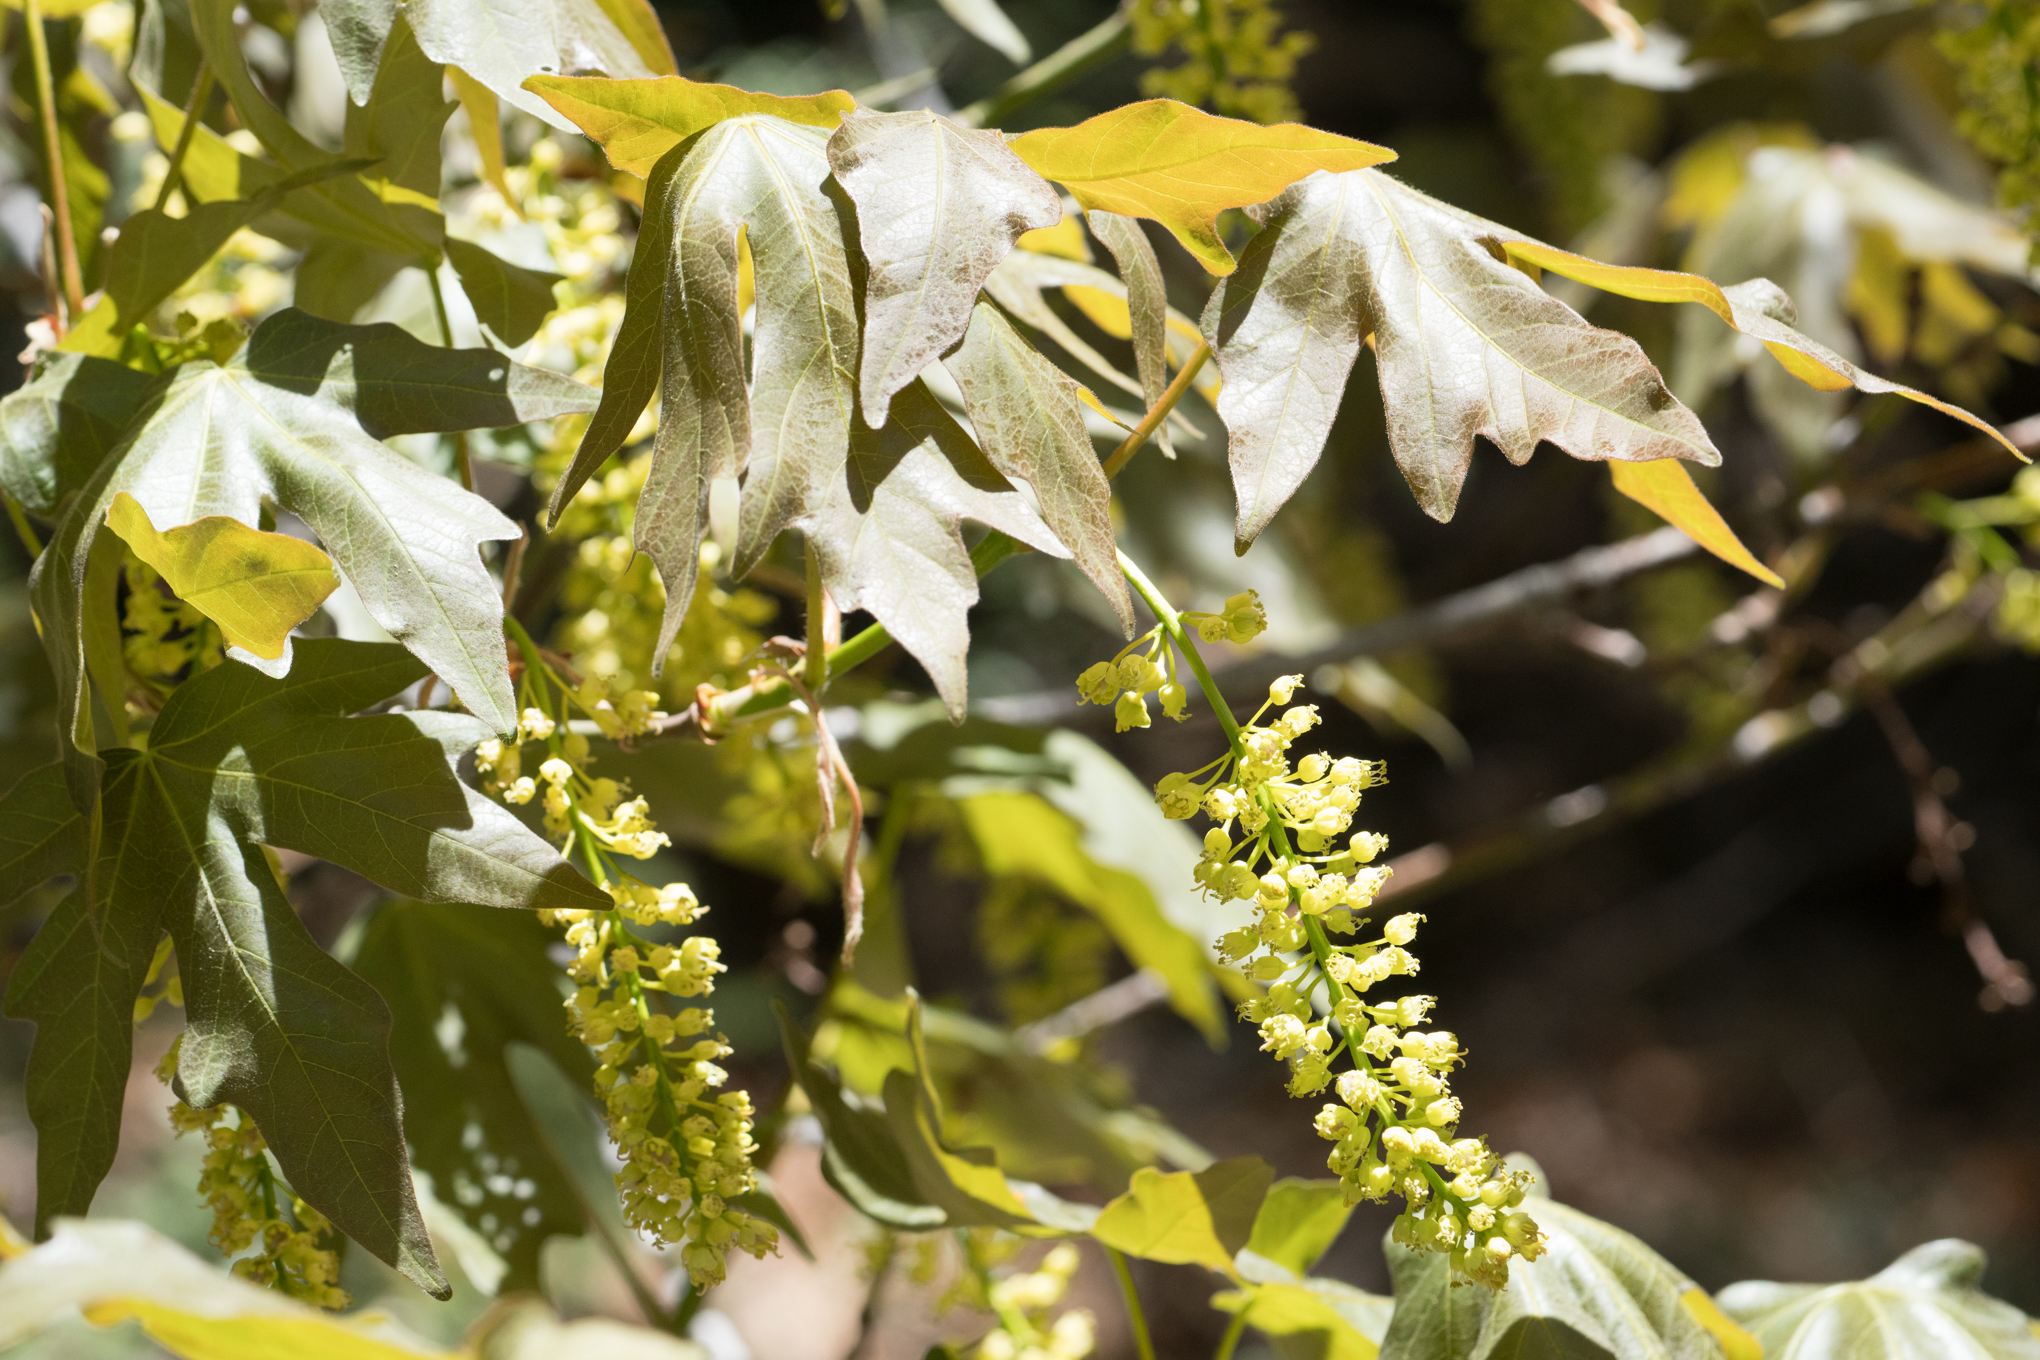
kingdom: Plantae
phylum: Tracheophyta
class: Magnoliopsida
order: Sapindales
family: Sapindaceae
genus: Acer
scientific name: Acer macrophyllum
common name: Oregon maple
